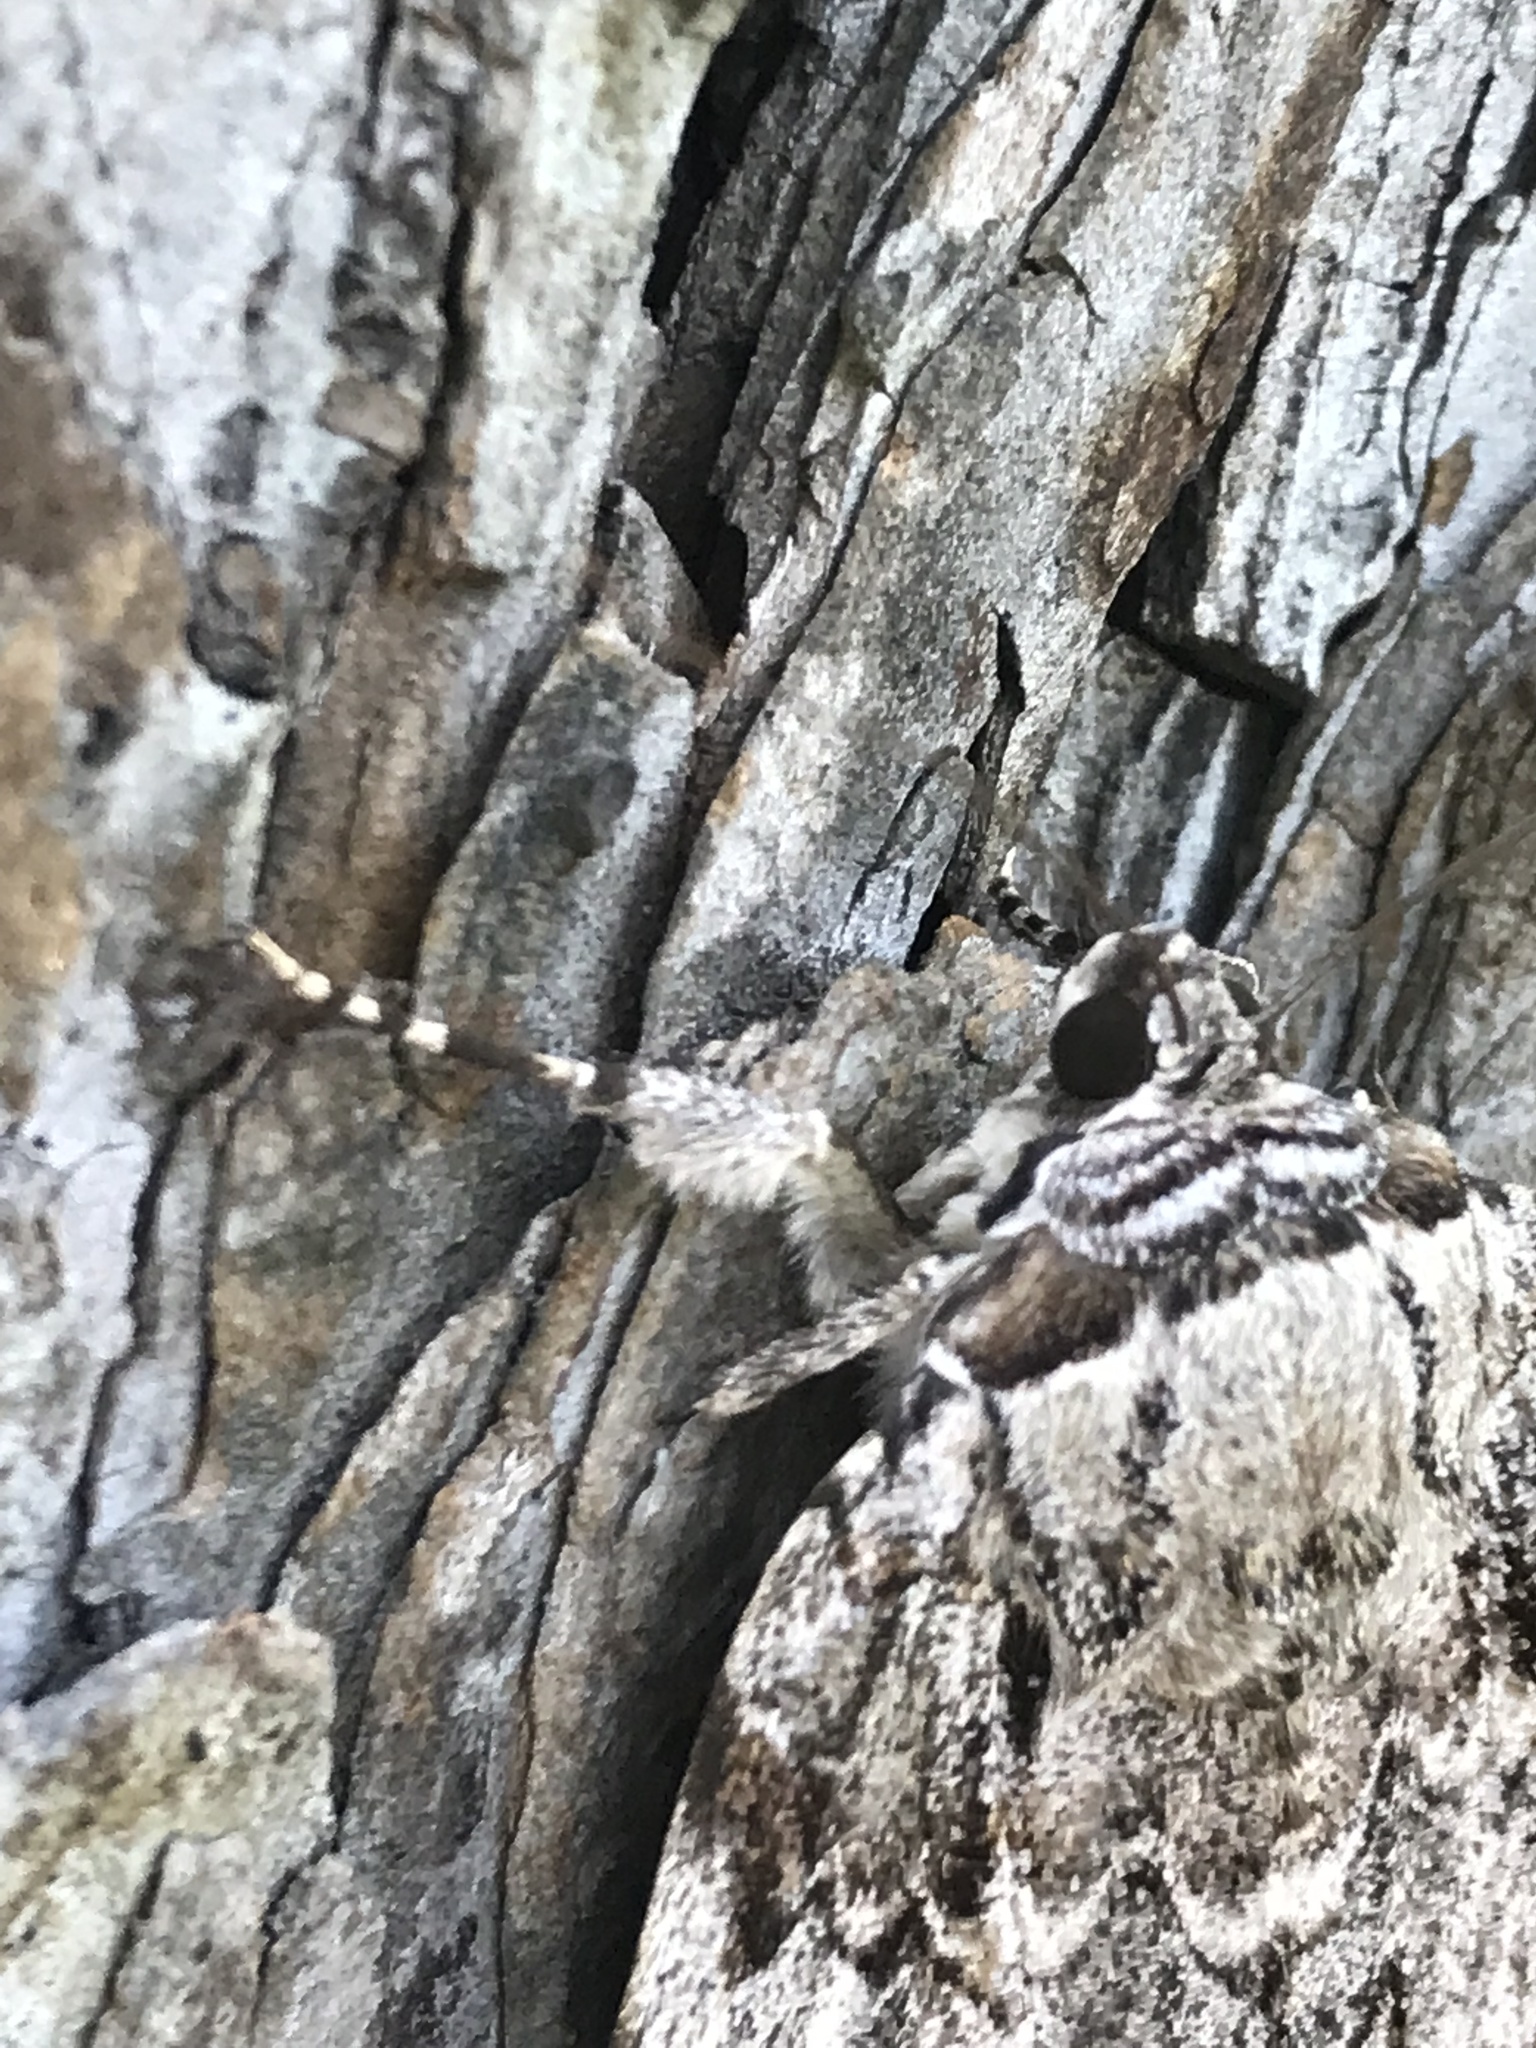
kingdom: Animalia
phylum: Arthropoda
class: Insecta
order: Lepidoptera
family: Erebidae
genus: Catocala
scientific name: Catocala maestosa
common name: Sad underwing
